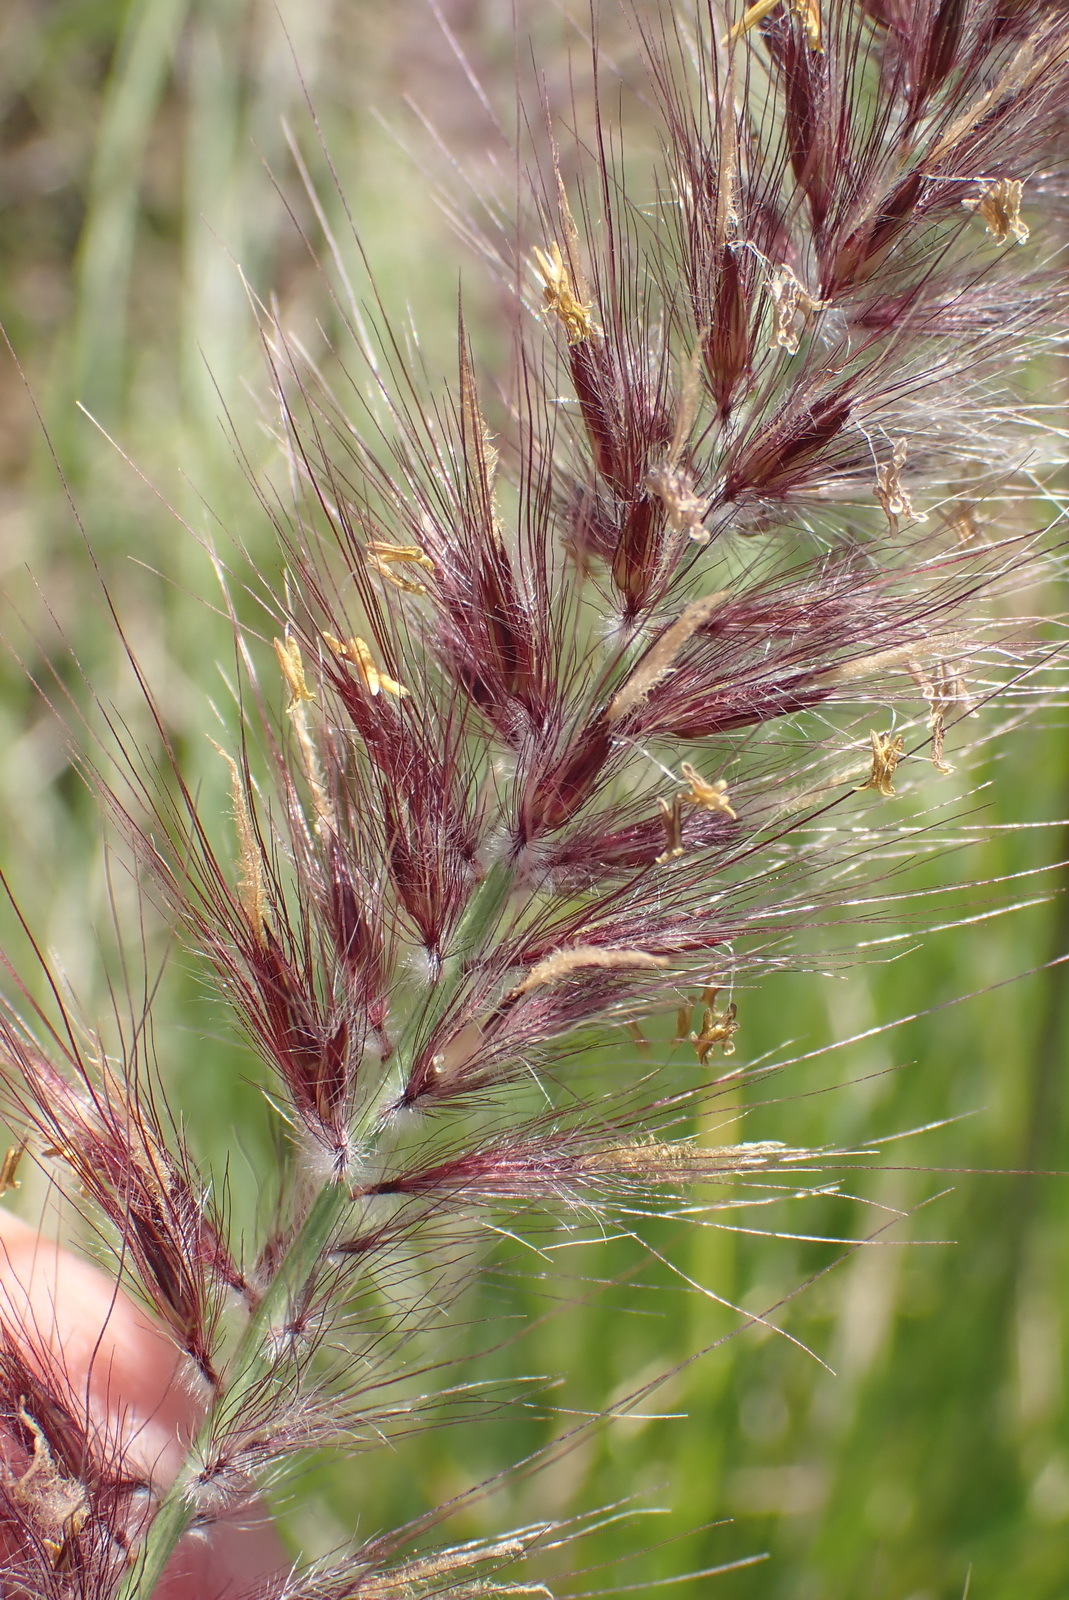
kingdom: Plantae
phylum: Tracheophyta
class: Liliopsida
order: Poales
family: Poaceae
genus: Cenchrus
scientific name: Cenchrus setaceus
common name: Crimson fountaingrass
